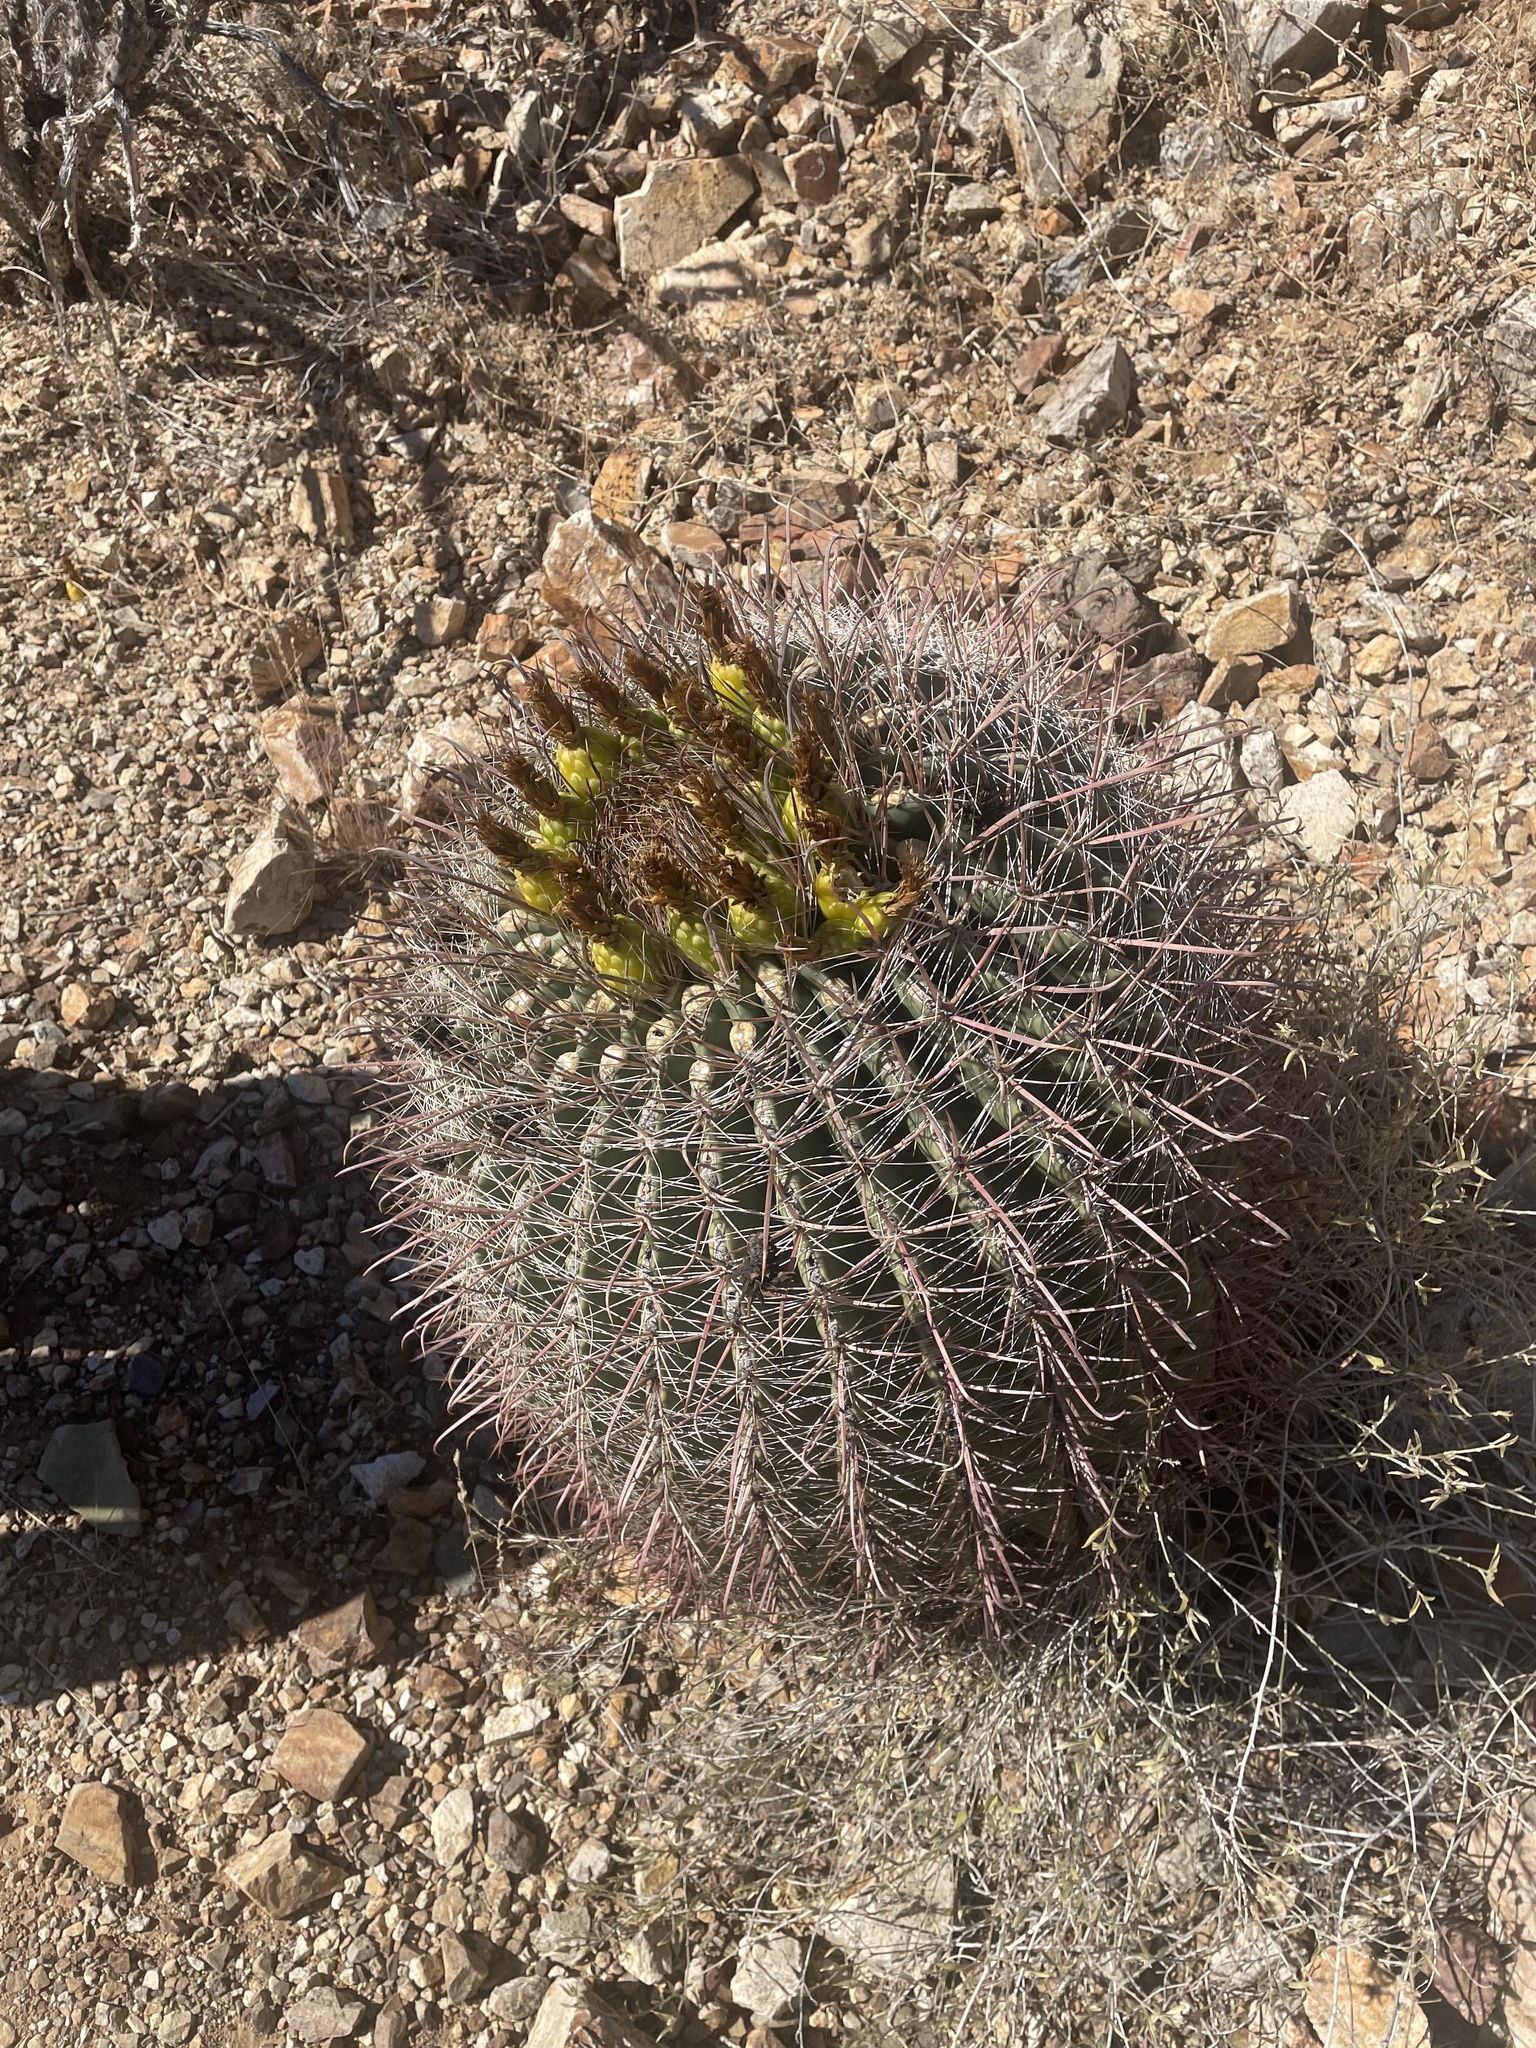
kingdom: Plantae
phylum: Tracheophyta
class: Magnoliopsida
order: Caryophyllales
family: Cactaceae
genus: Ferocactus
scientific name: Ferocactus wislizeni
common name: Candy barrel cactus
